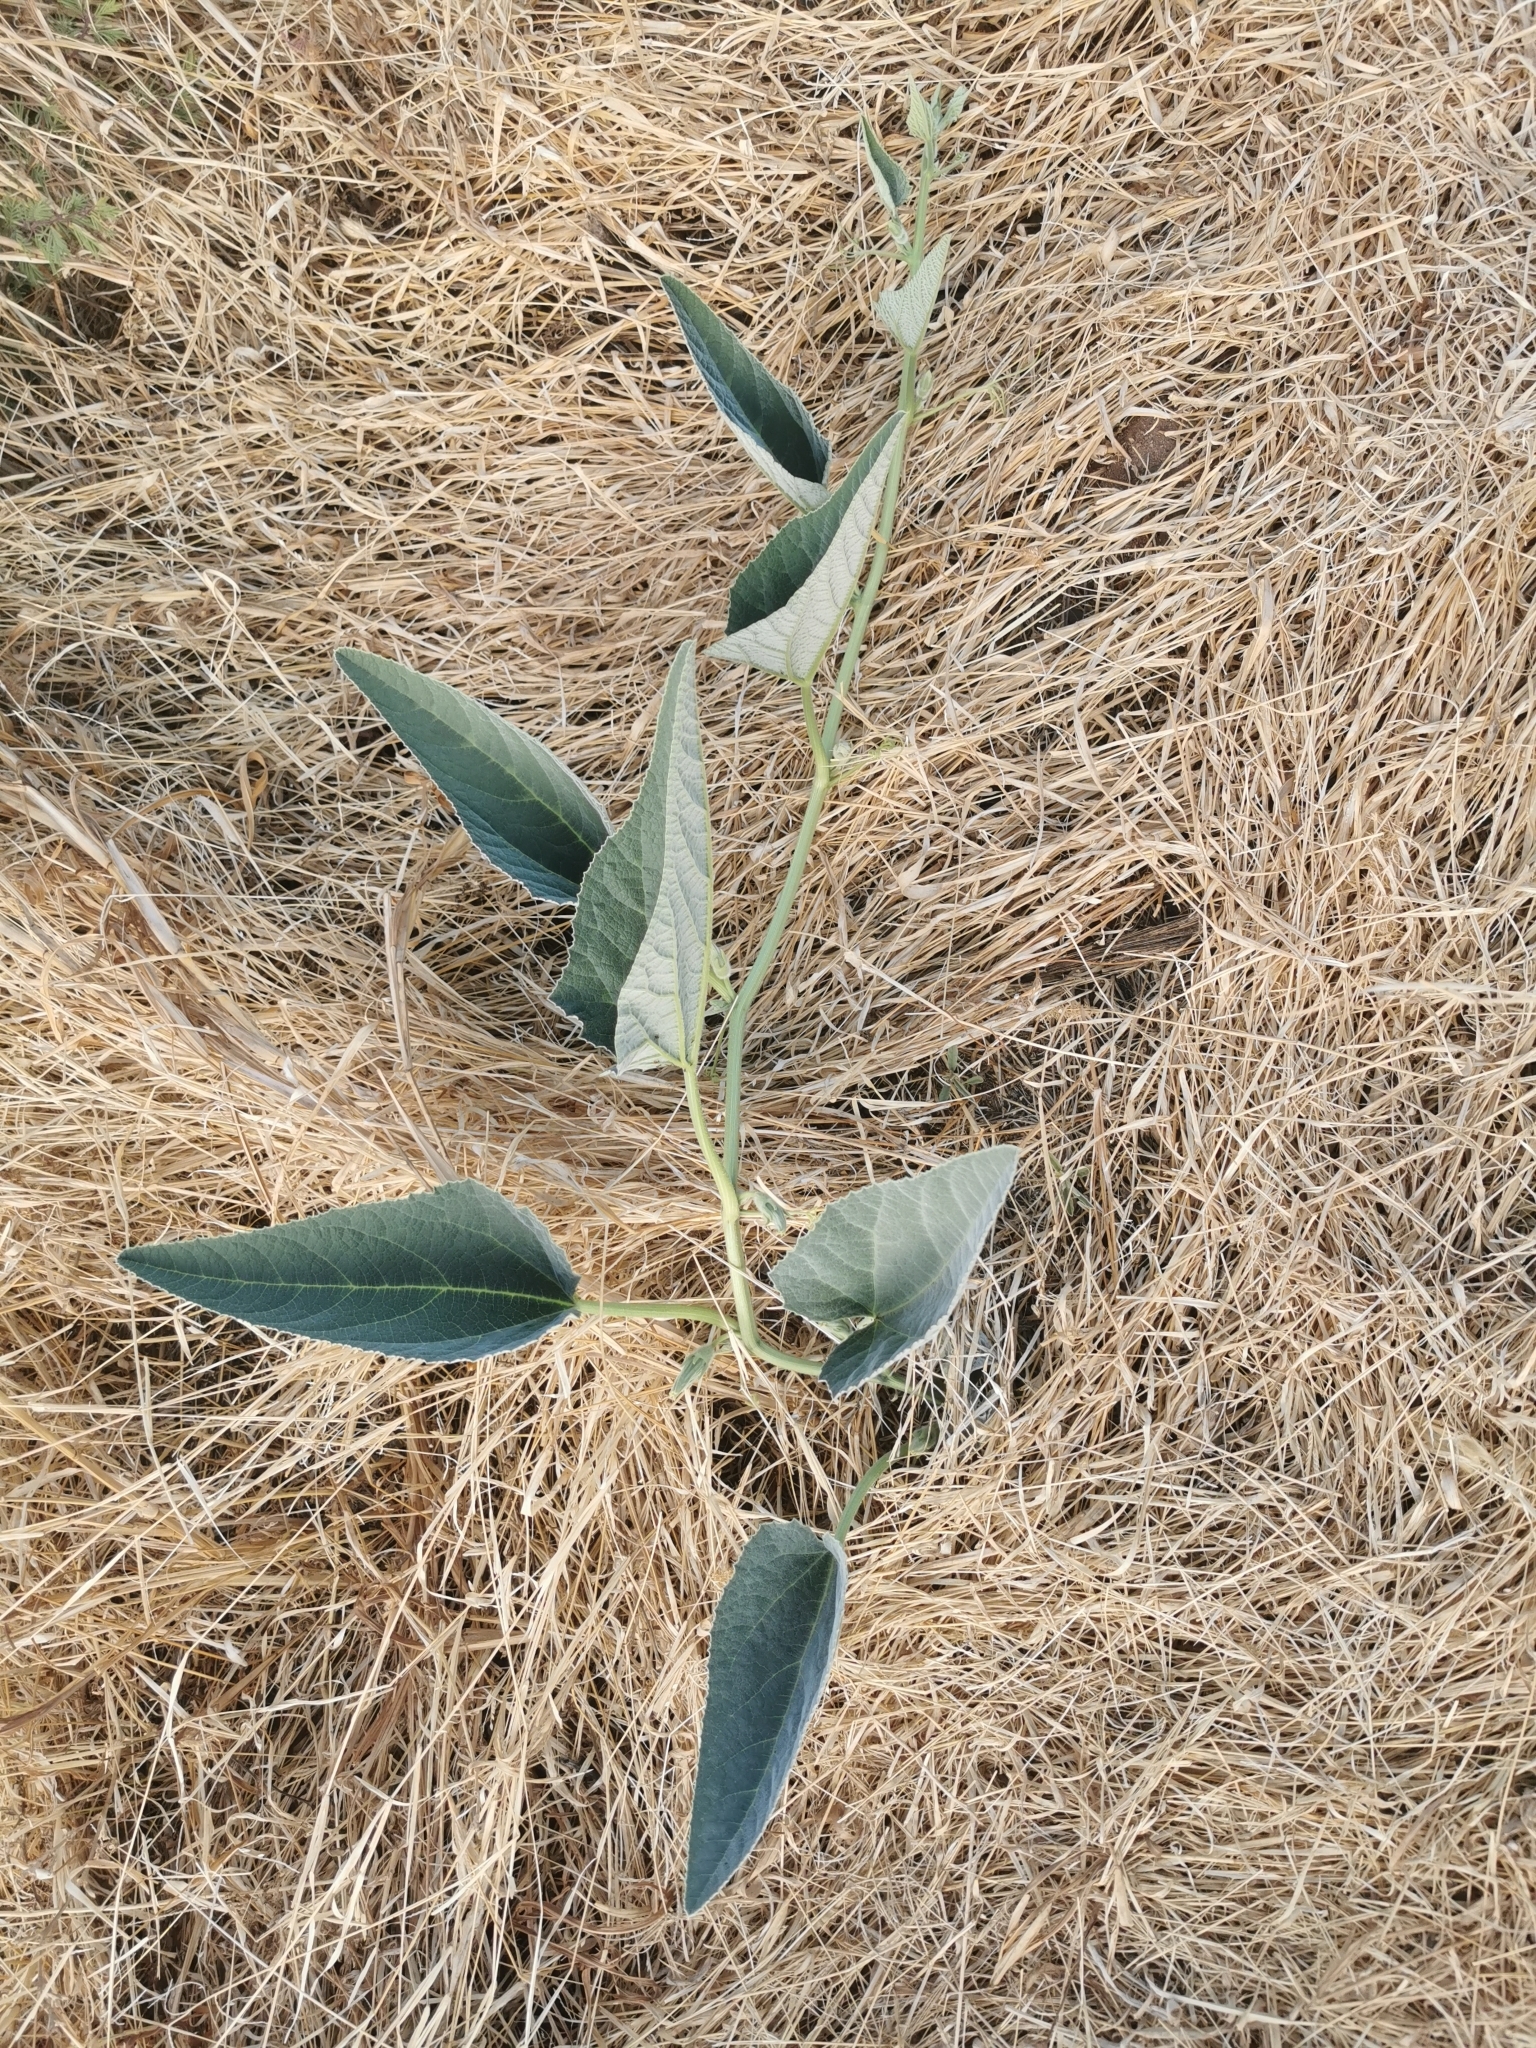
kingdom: Plantae
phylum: Tracheophyta
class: Magnoliopsida
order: Cucurbitales
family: Cucurbitaceae
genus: Cucurbita
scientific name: Cucurbita foetidissima
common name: Buffalo gourd
